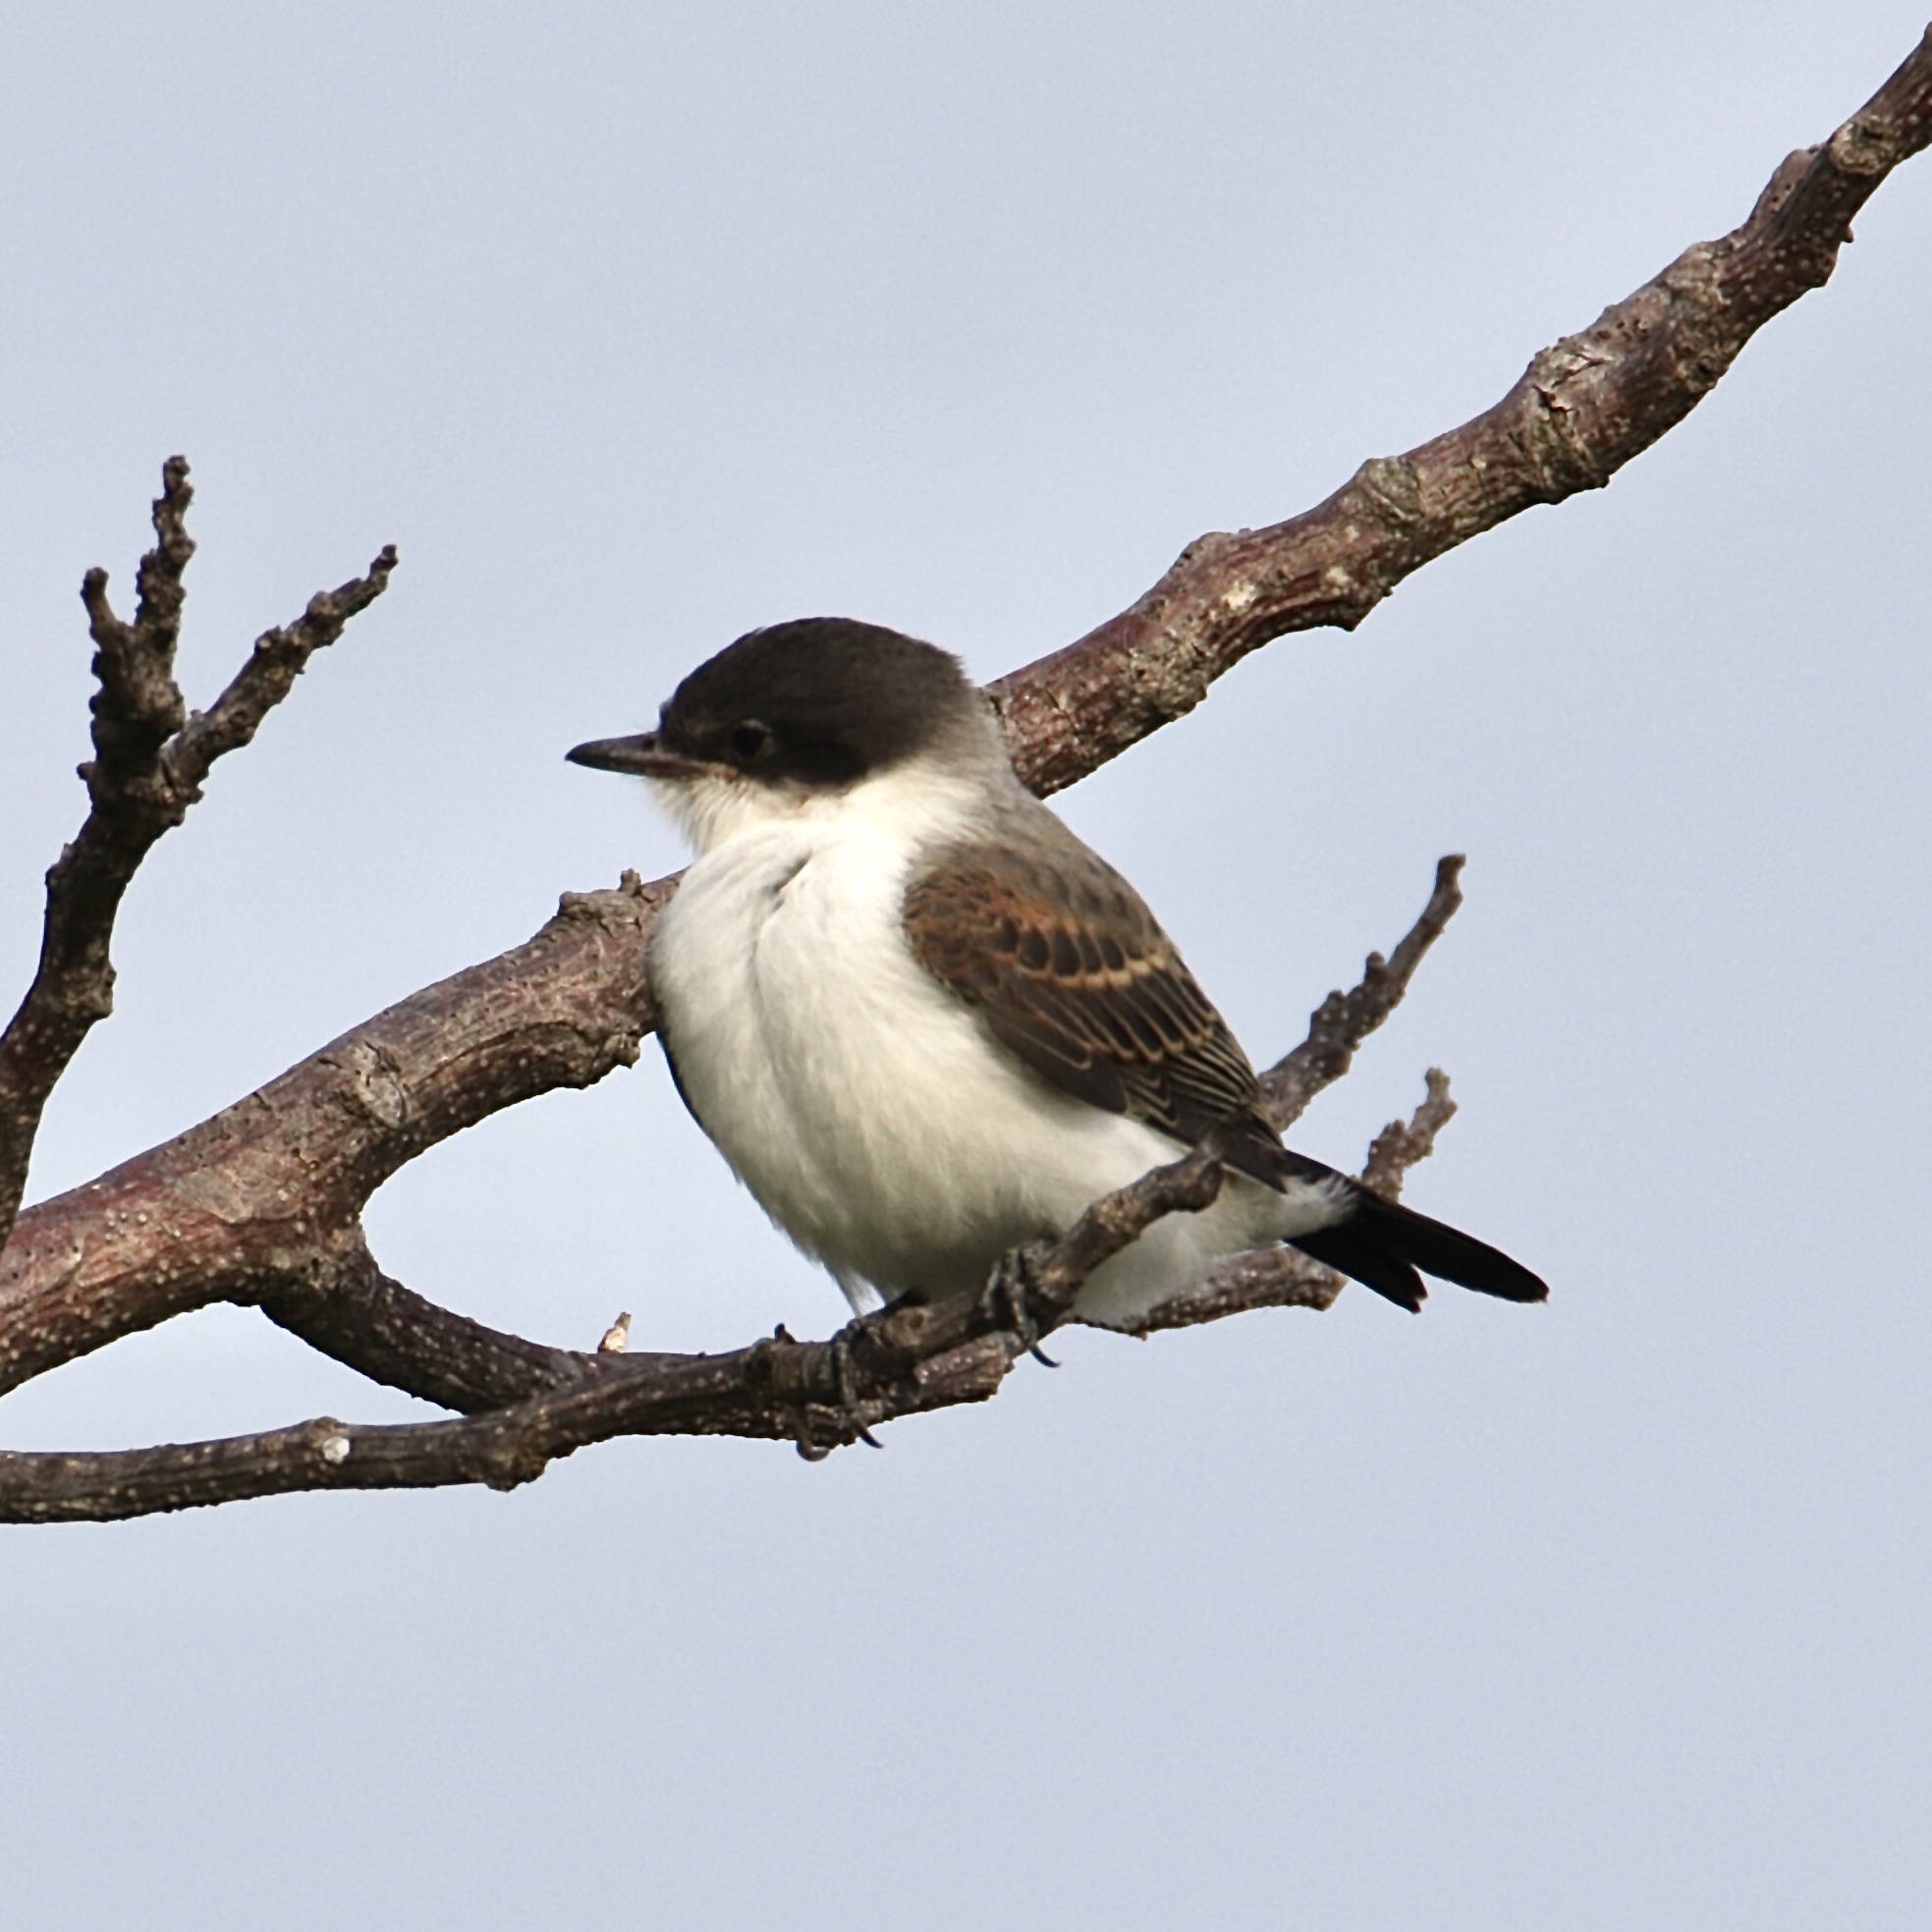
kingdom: Animalia
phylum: Chordata
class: Aves
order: Passeriformes
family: Tyrannidae
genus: Tyrannus
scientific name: Tyrannus savana
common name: Fork-tailed flycatcher
